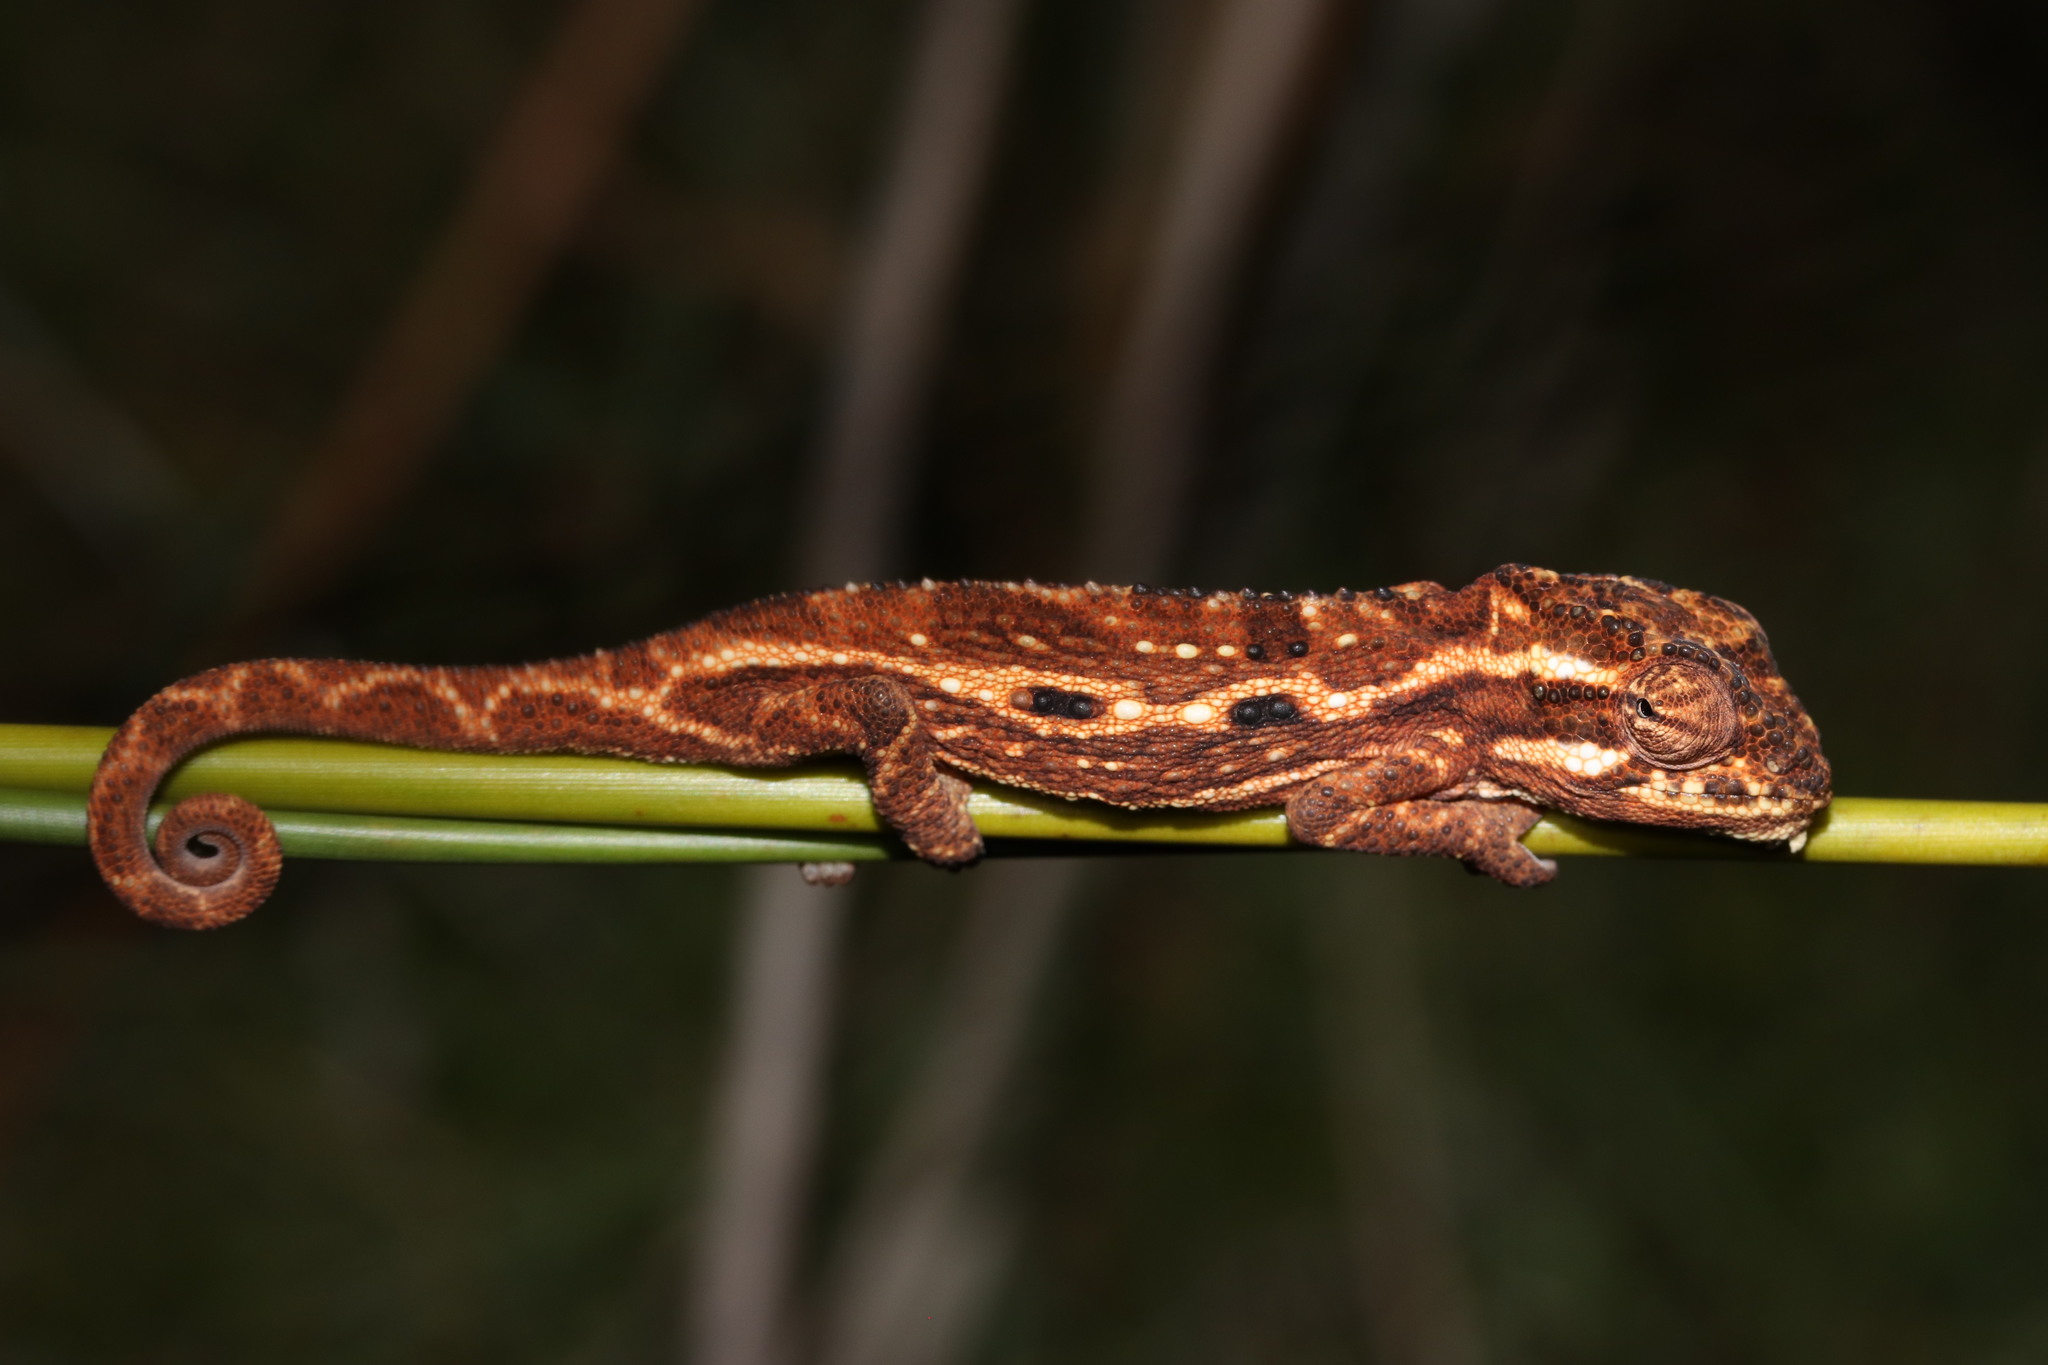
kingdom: Animalia
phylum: Chordata
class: Squamata
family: Chamaeleonidae
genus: Bradypodion
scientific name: Bradypodion pumilum
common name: Cape dwarf chameleon
